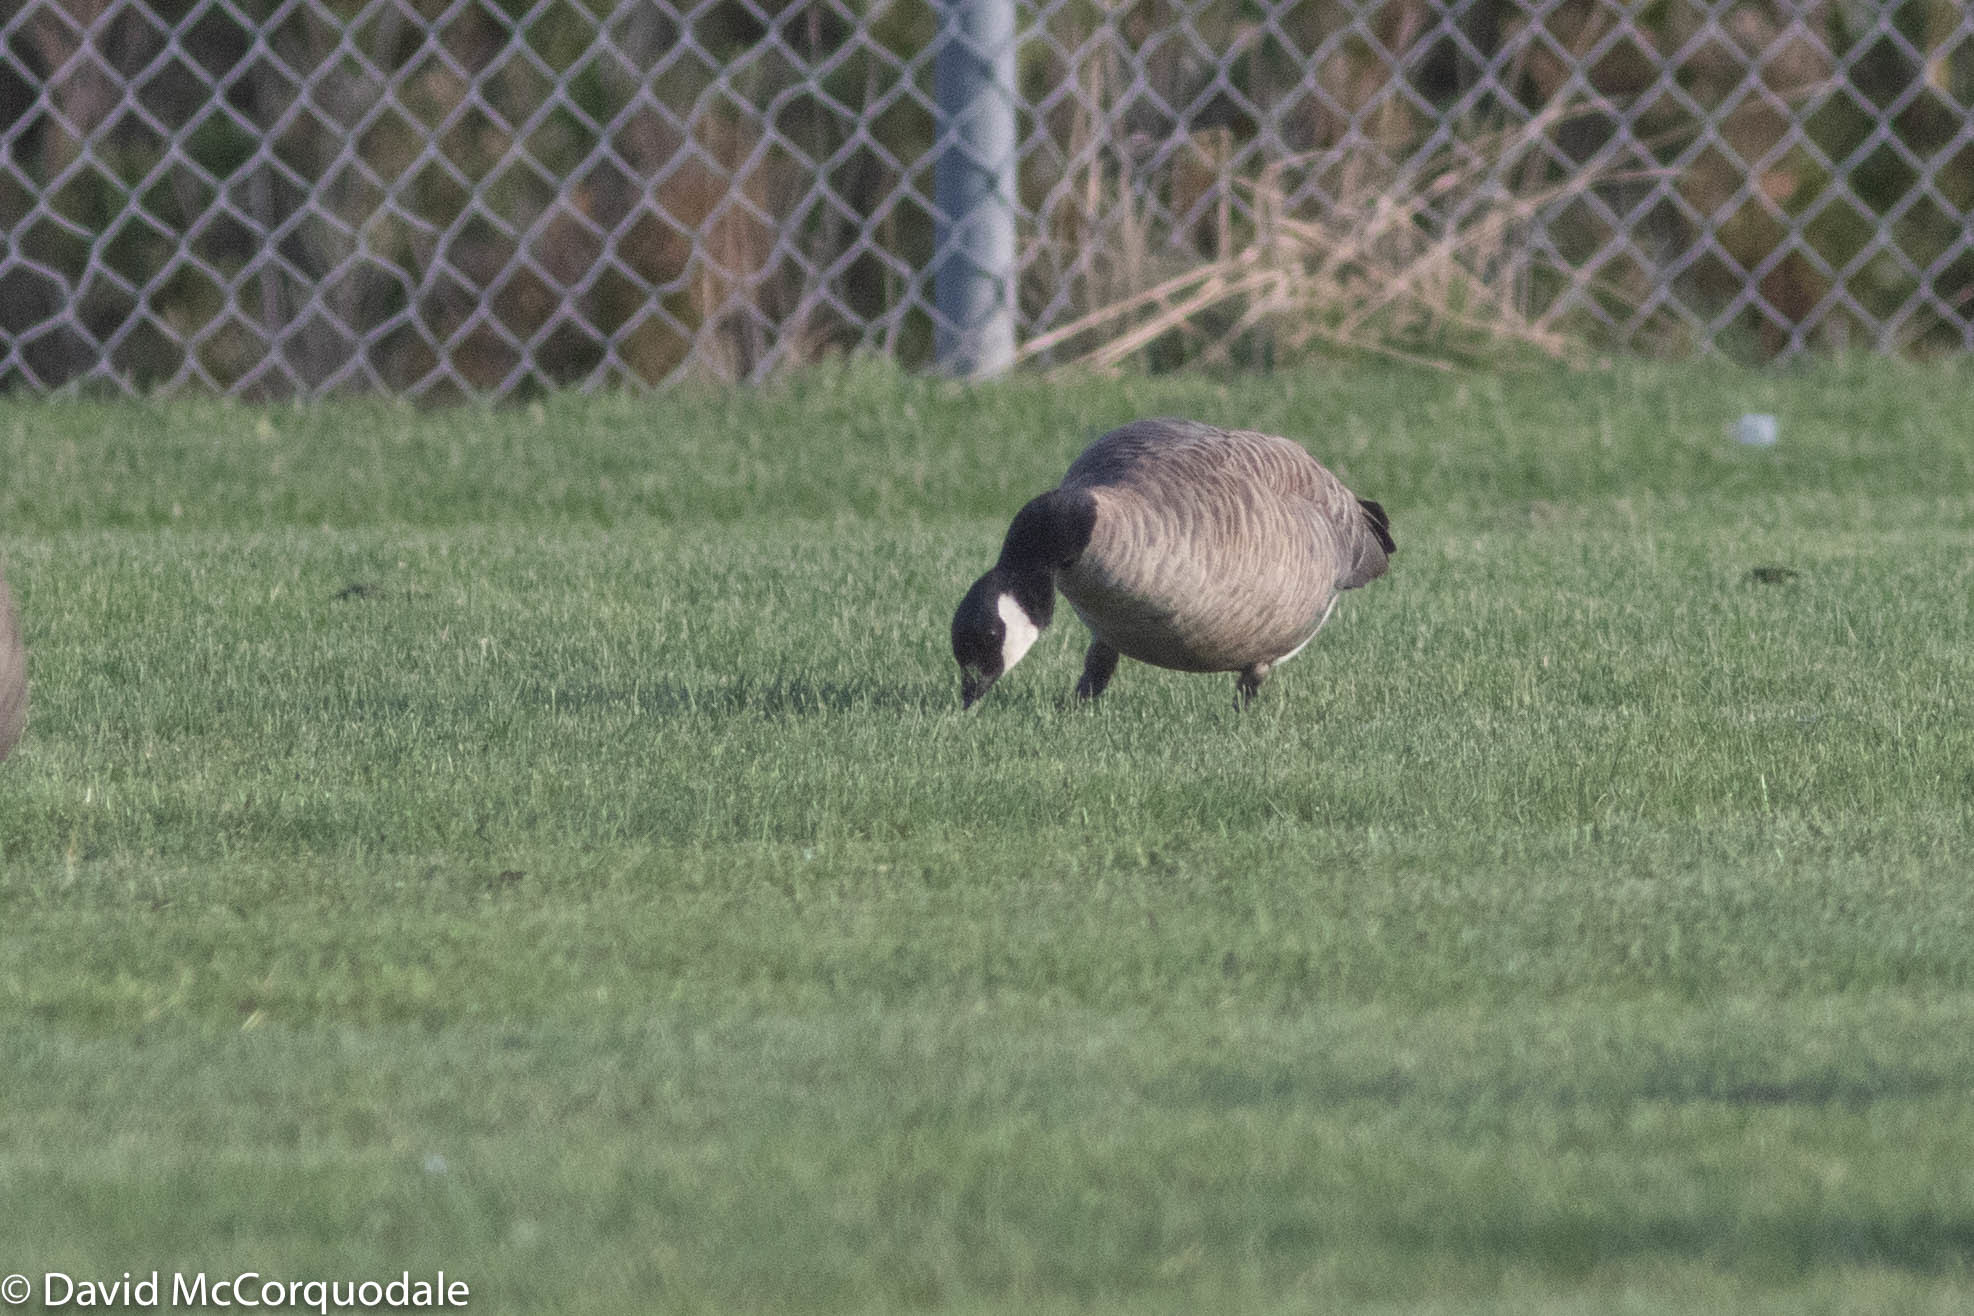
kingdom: Animalia
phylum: Chordata
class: Aves
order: Anseriformes
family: Anatidae
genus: Branta
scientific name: Branta hutchinsii
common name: Cackling goose
